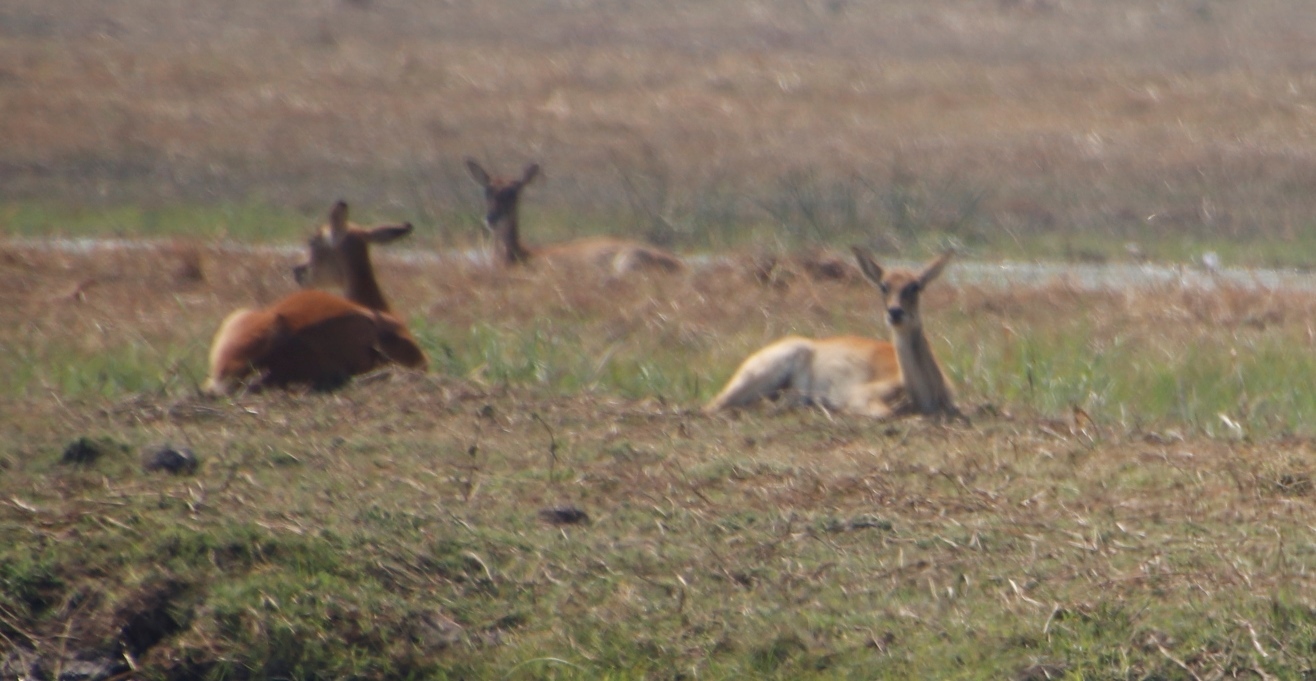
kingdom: Animalia
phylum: Chordata
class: Mammalia
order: Artiodactyla
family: Bovidae
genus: Kobus
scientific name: Kobus leche
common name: Lechwe
